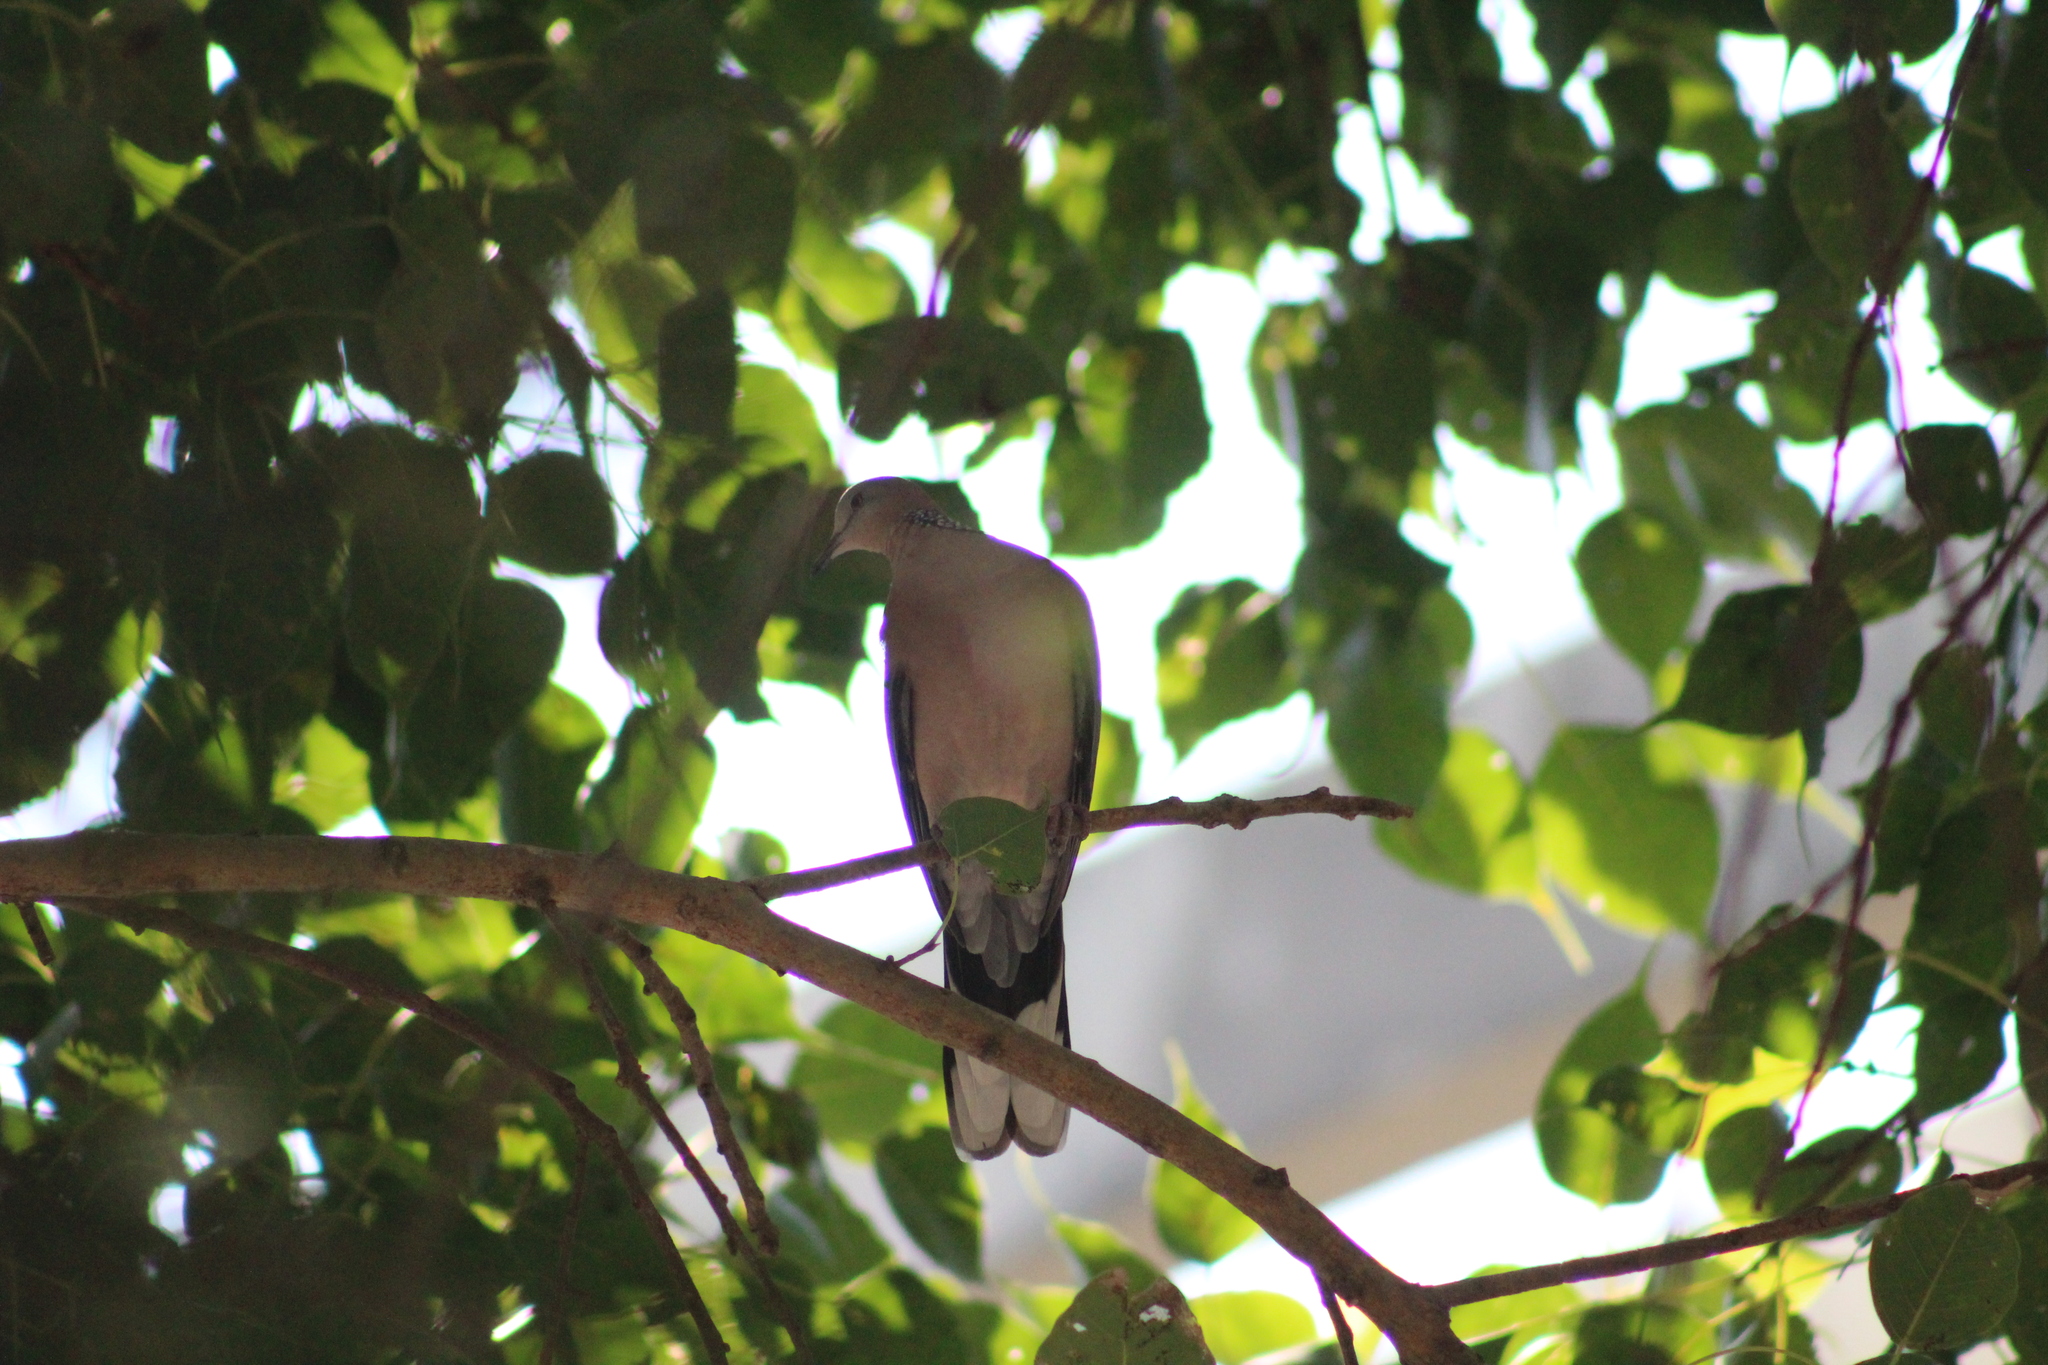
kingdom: Animalia
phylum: Chordata
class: Aves
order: Columbiformes
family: Columbidae
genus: Spilopelia
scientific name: Spilopelia chinensis
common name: Spotted dove
